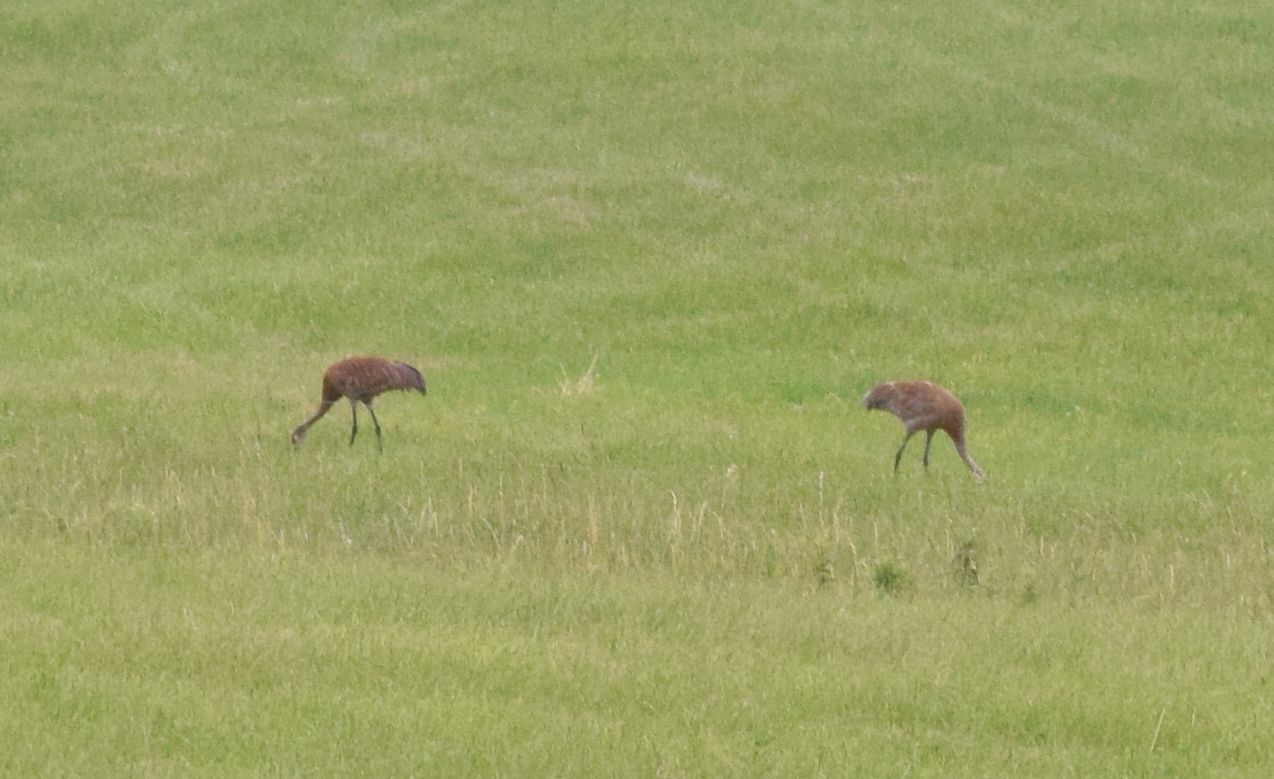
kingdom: Animalia
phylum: Chordata
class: Aves
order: Gruiformes
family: Gruidae
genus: Grus
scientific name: Grus canadensis
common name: Sandhill crane
